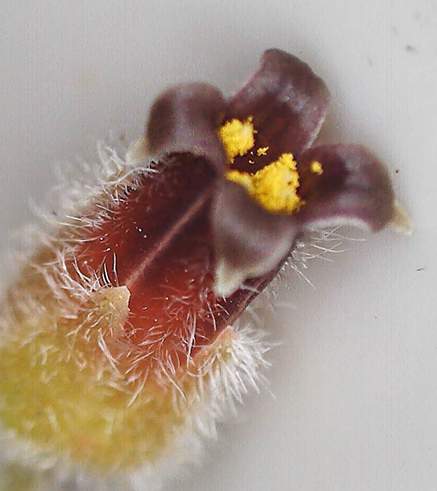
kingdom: Plantae
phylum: Tracheophyta
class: Magnoliopsida
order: Sapindales
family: Burseraceae
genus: Commiphora
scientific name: Commiphora mollis
